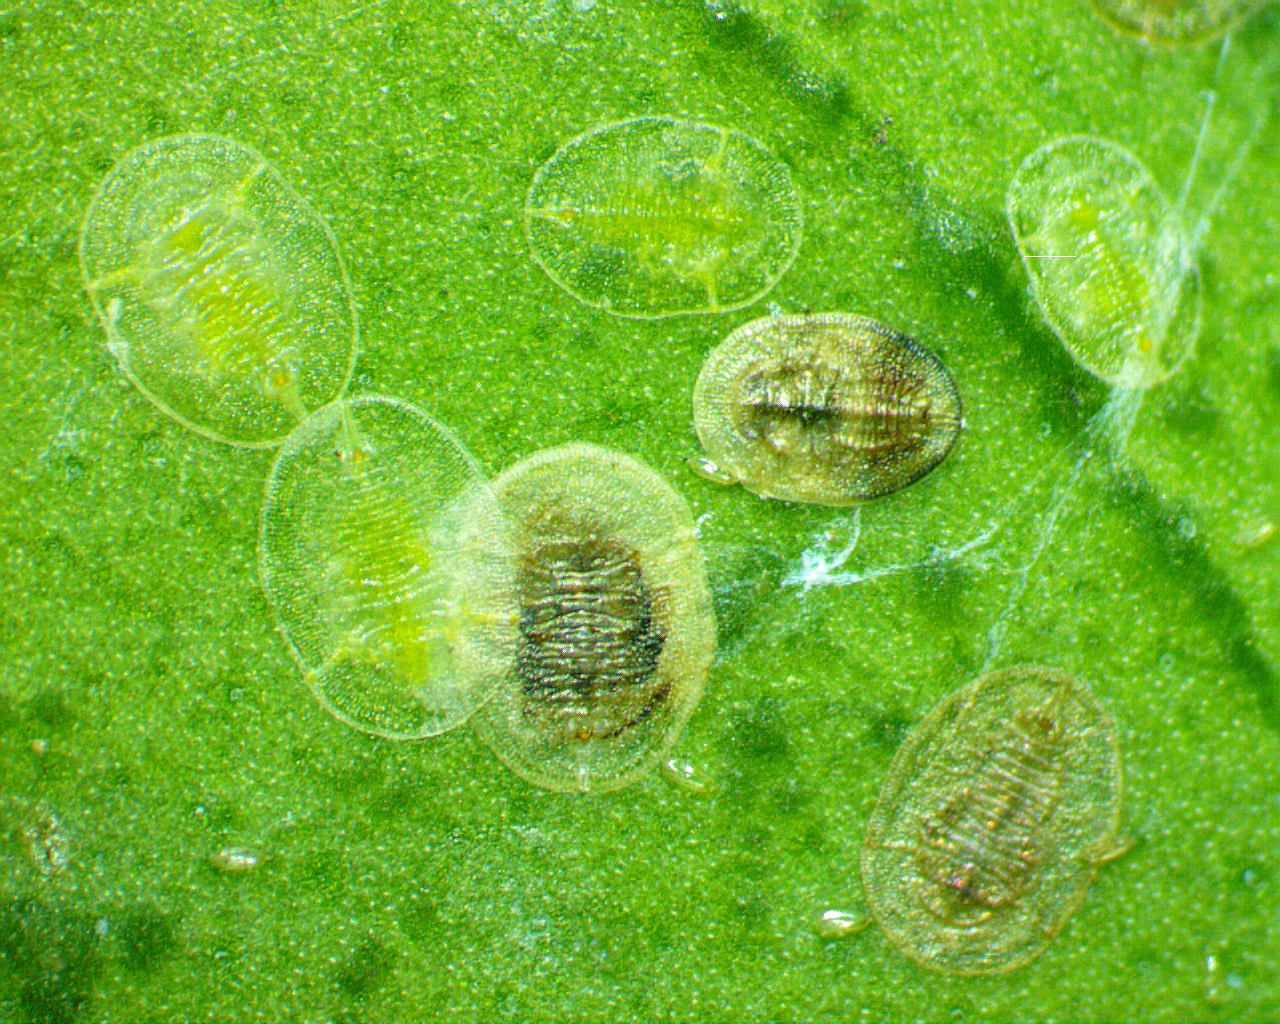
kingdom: Animalia
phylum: Arthropoda
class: Insecta
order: Hemiptera
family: Aleyrodidae
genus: Dialeurodes
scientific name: Dialeurodes citri
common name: Whitefly
